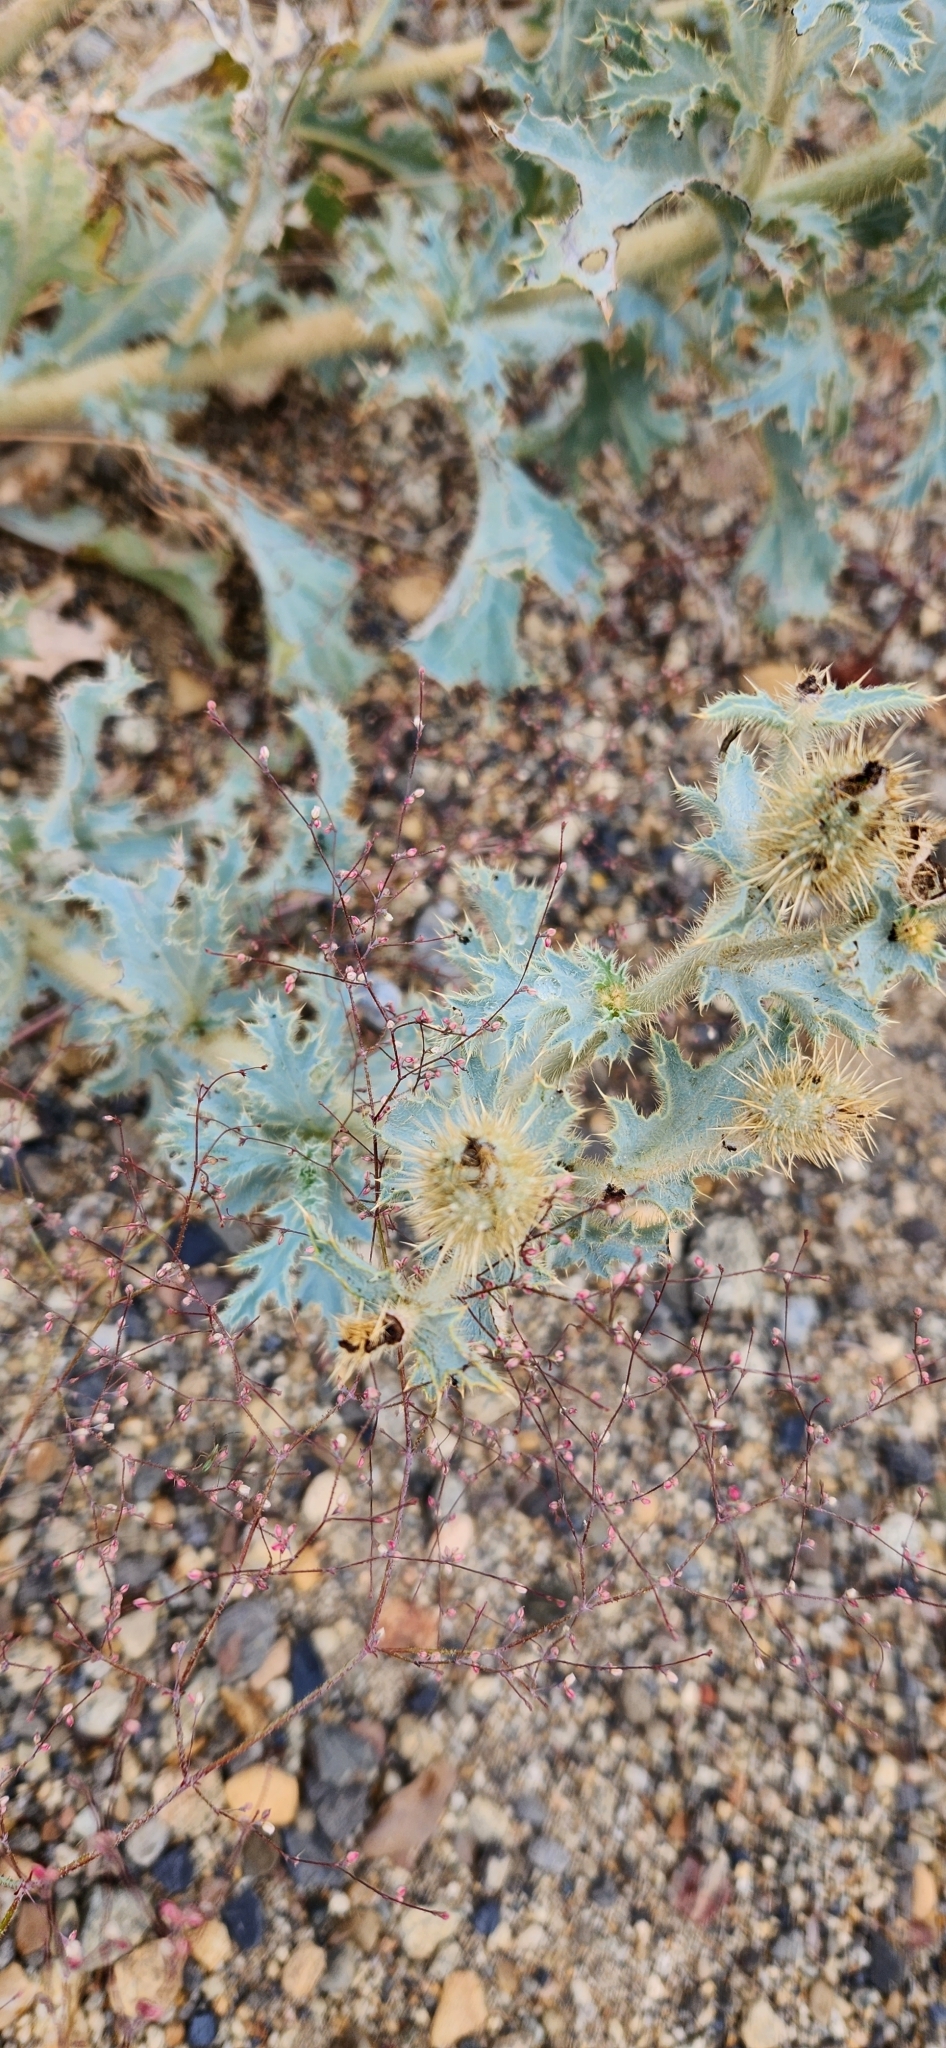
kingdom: Plantae
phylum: Tracheophyta
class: Magnoliopsida
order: Ranunculales
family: Papaveraceae
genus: Argemone
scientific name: Argemone munita
